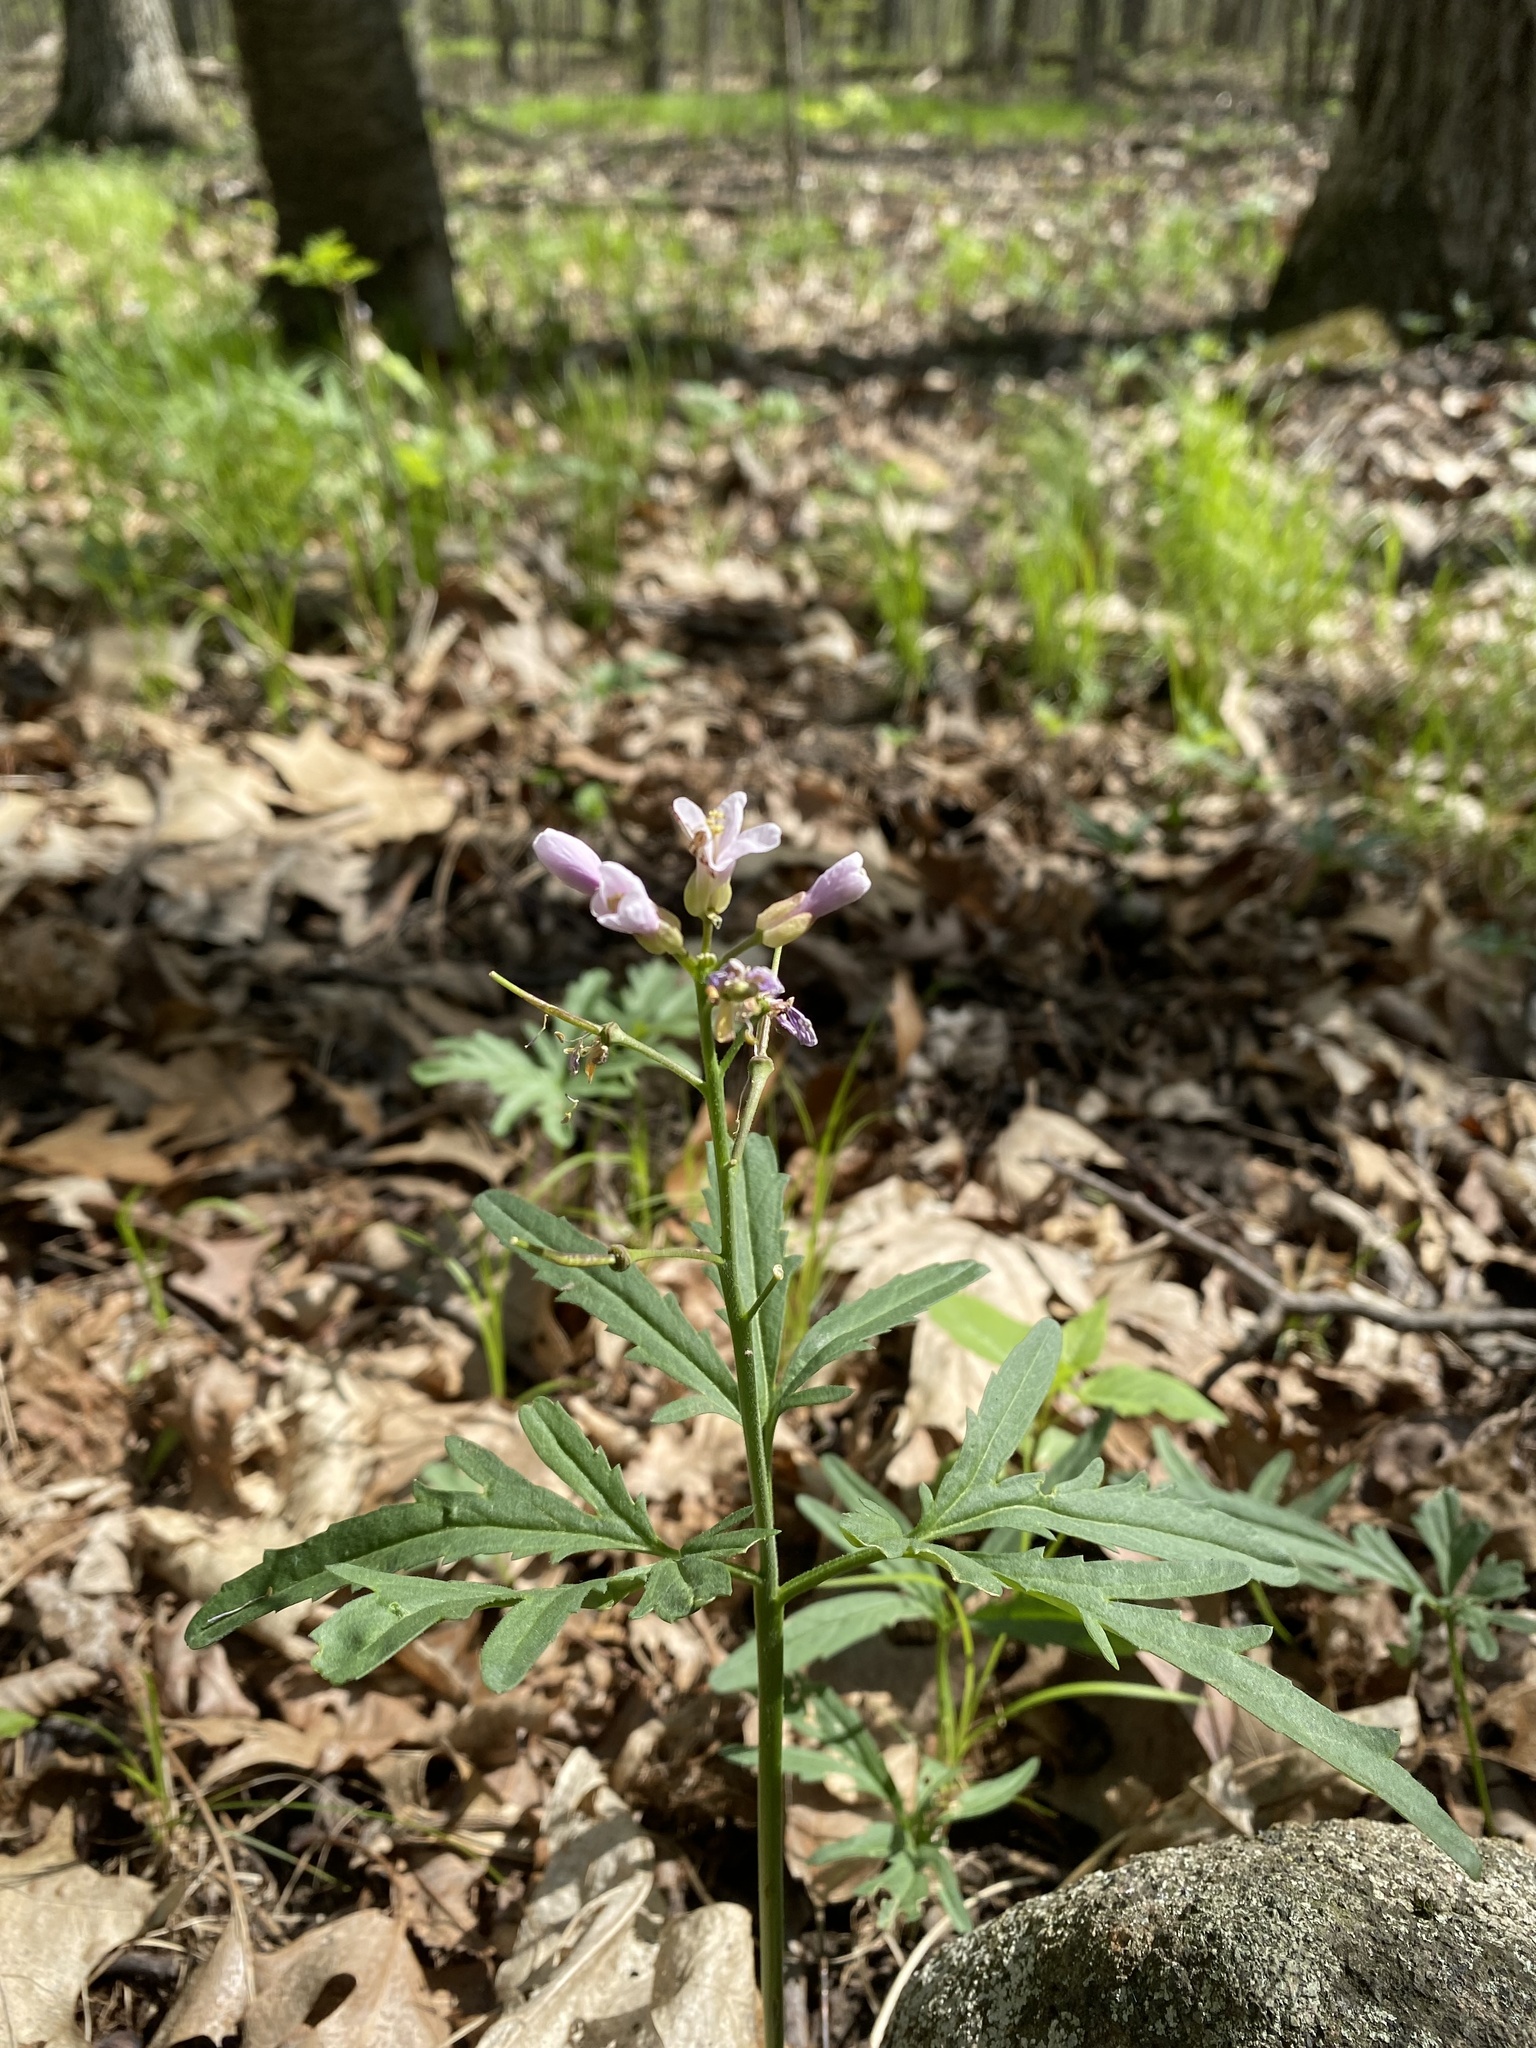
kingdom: Plantae
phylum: Tracheophyta
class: Magnoliopsida
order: Brassicales
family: Brassicaceae
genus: Cardamine
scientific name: Cardamine concatenata
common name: Cut-leaf toothcup
